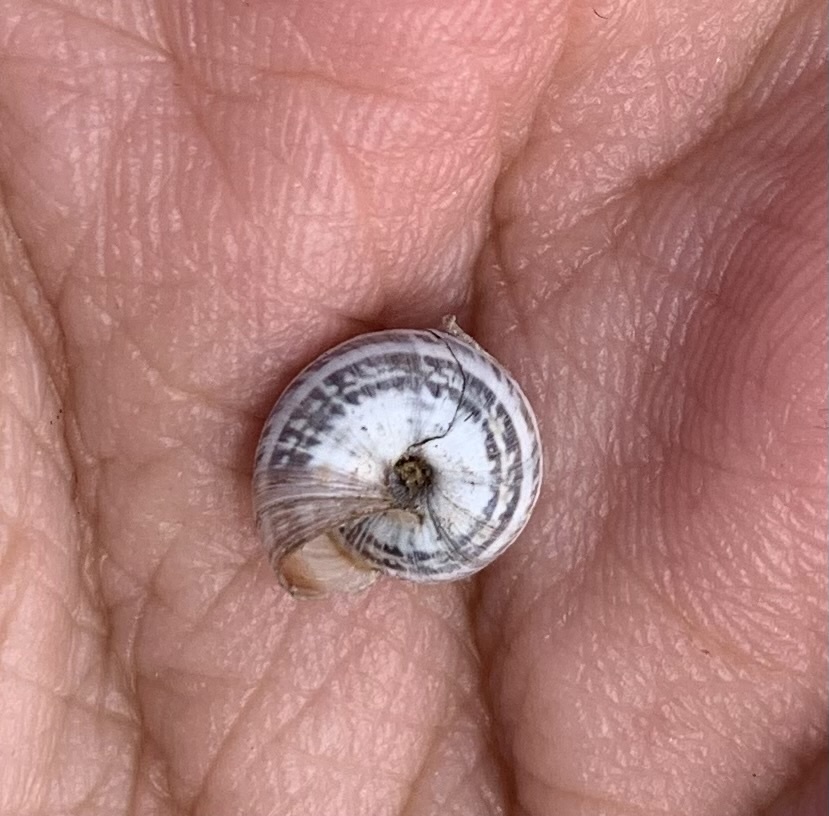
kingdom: Animalia
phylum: Mollusca
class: Gastropoda
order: Stylommatophora
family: Geomitridae
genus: Cernuella
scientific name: Cernuella virgata
